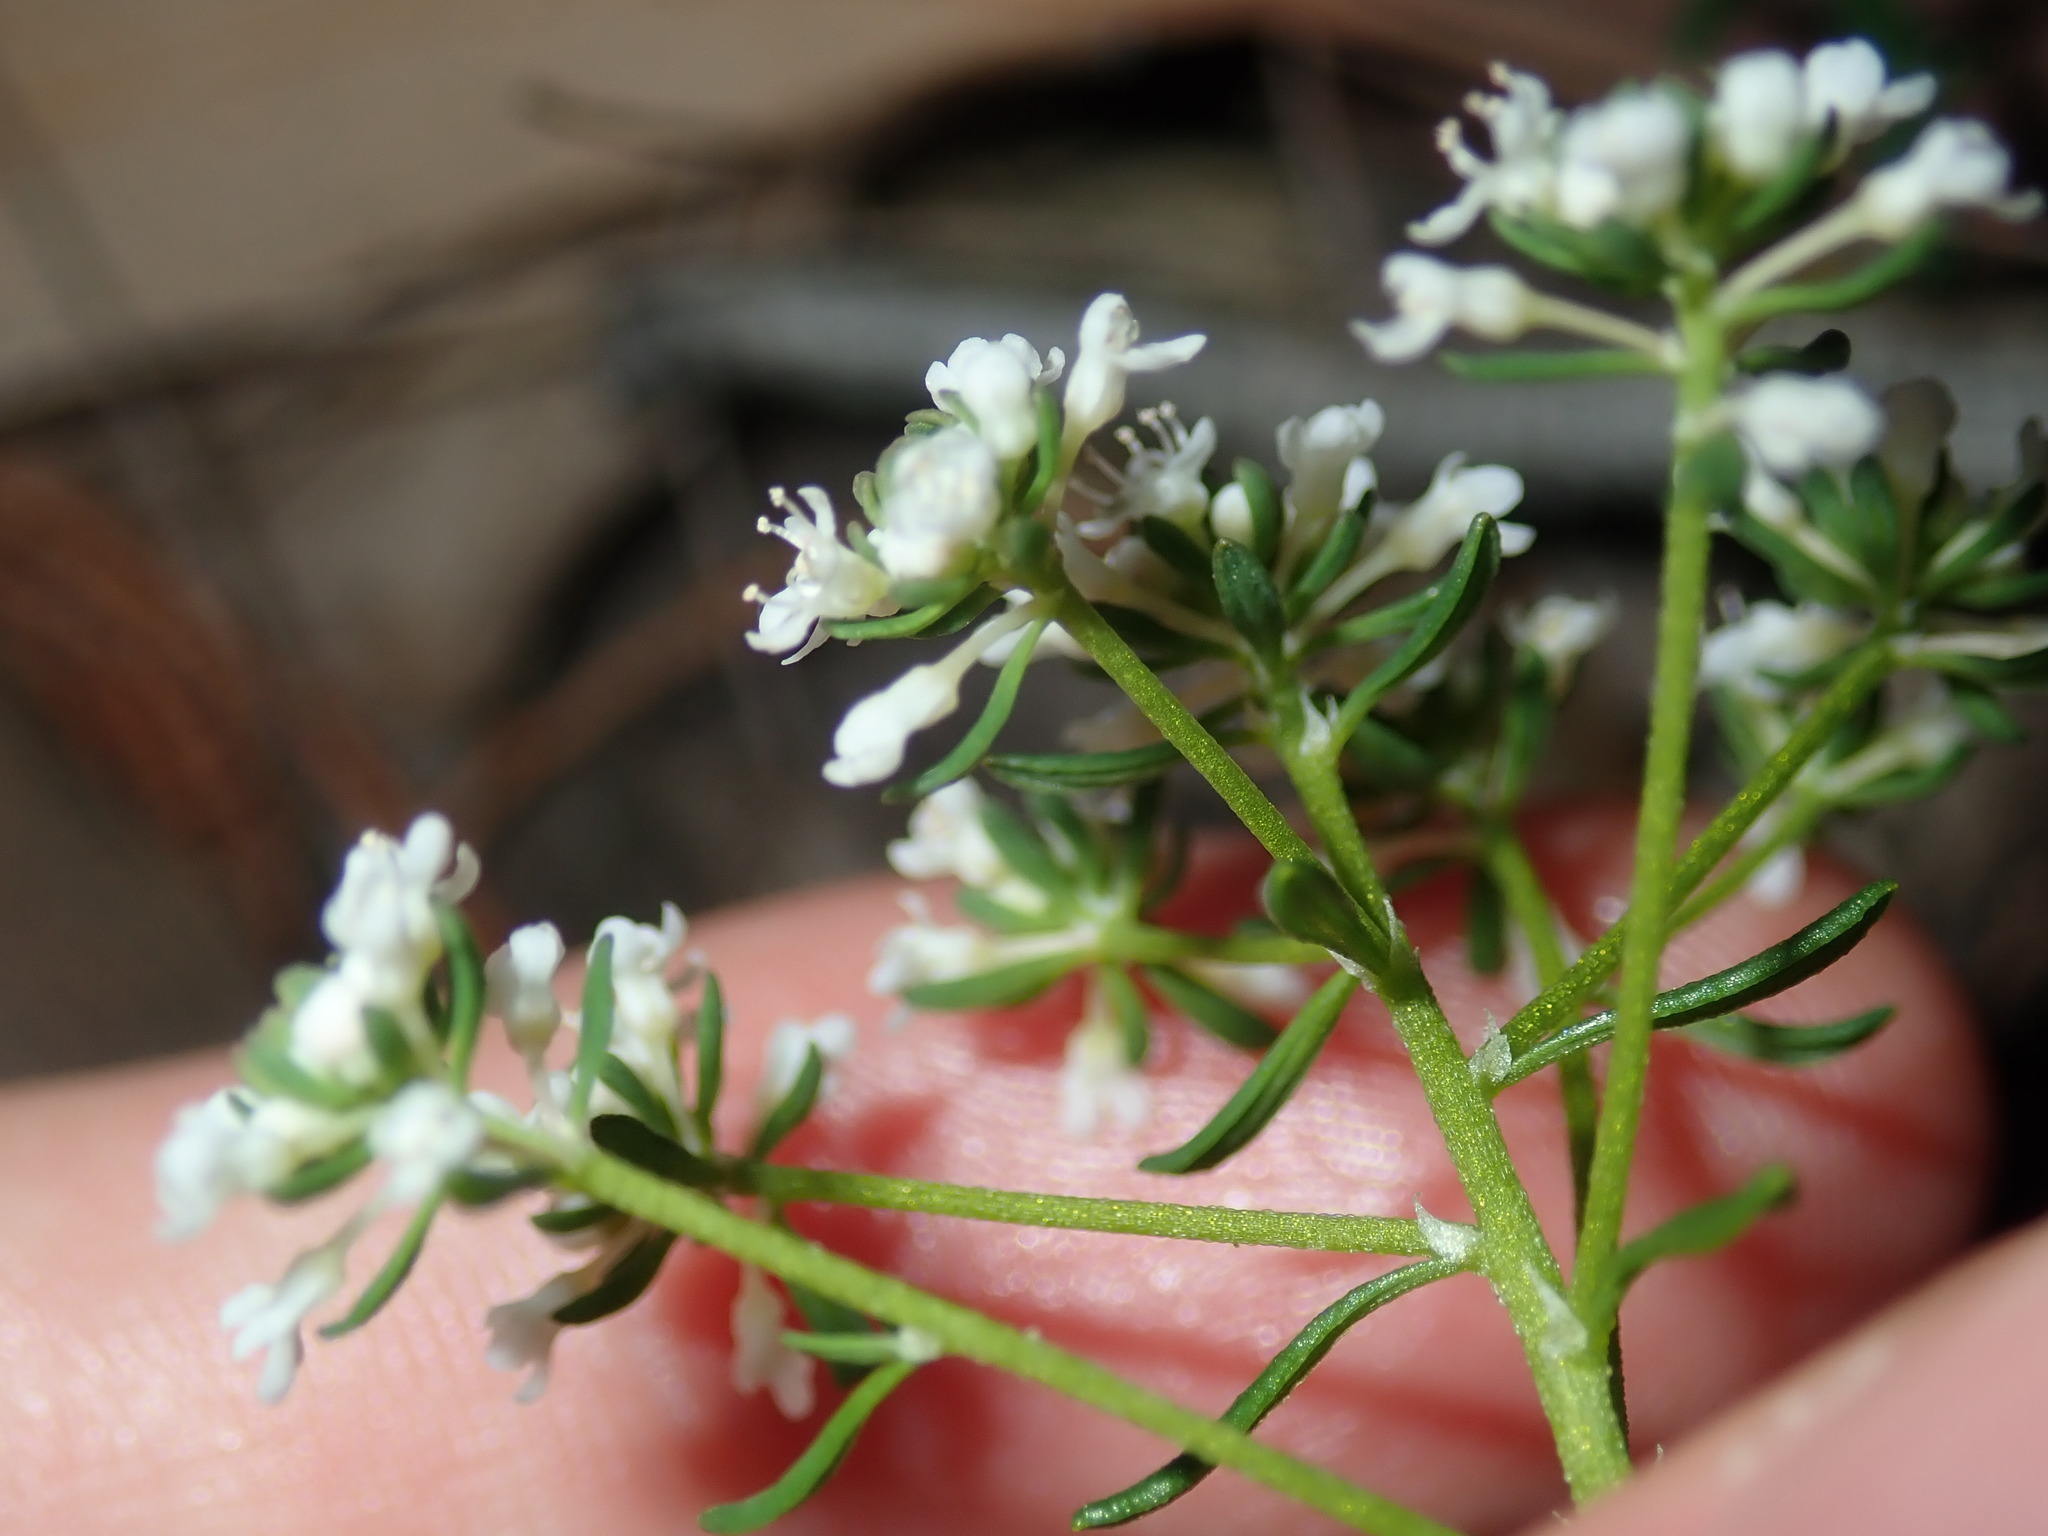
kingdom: Plantae
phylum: Tracheophyta
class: Magnoliopsida
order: Malpighiales
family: Phyllanthaceae
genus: Poranthera
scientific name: Poranthera ericifolia
